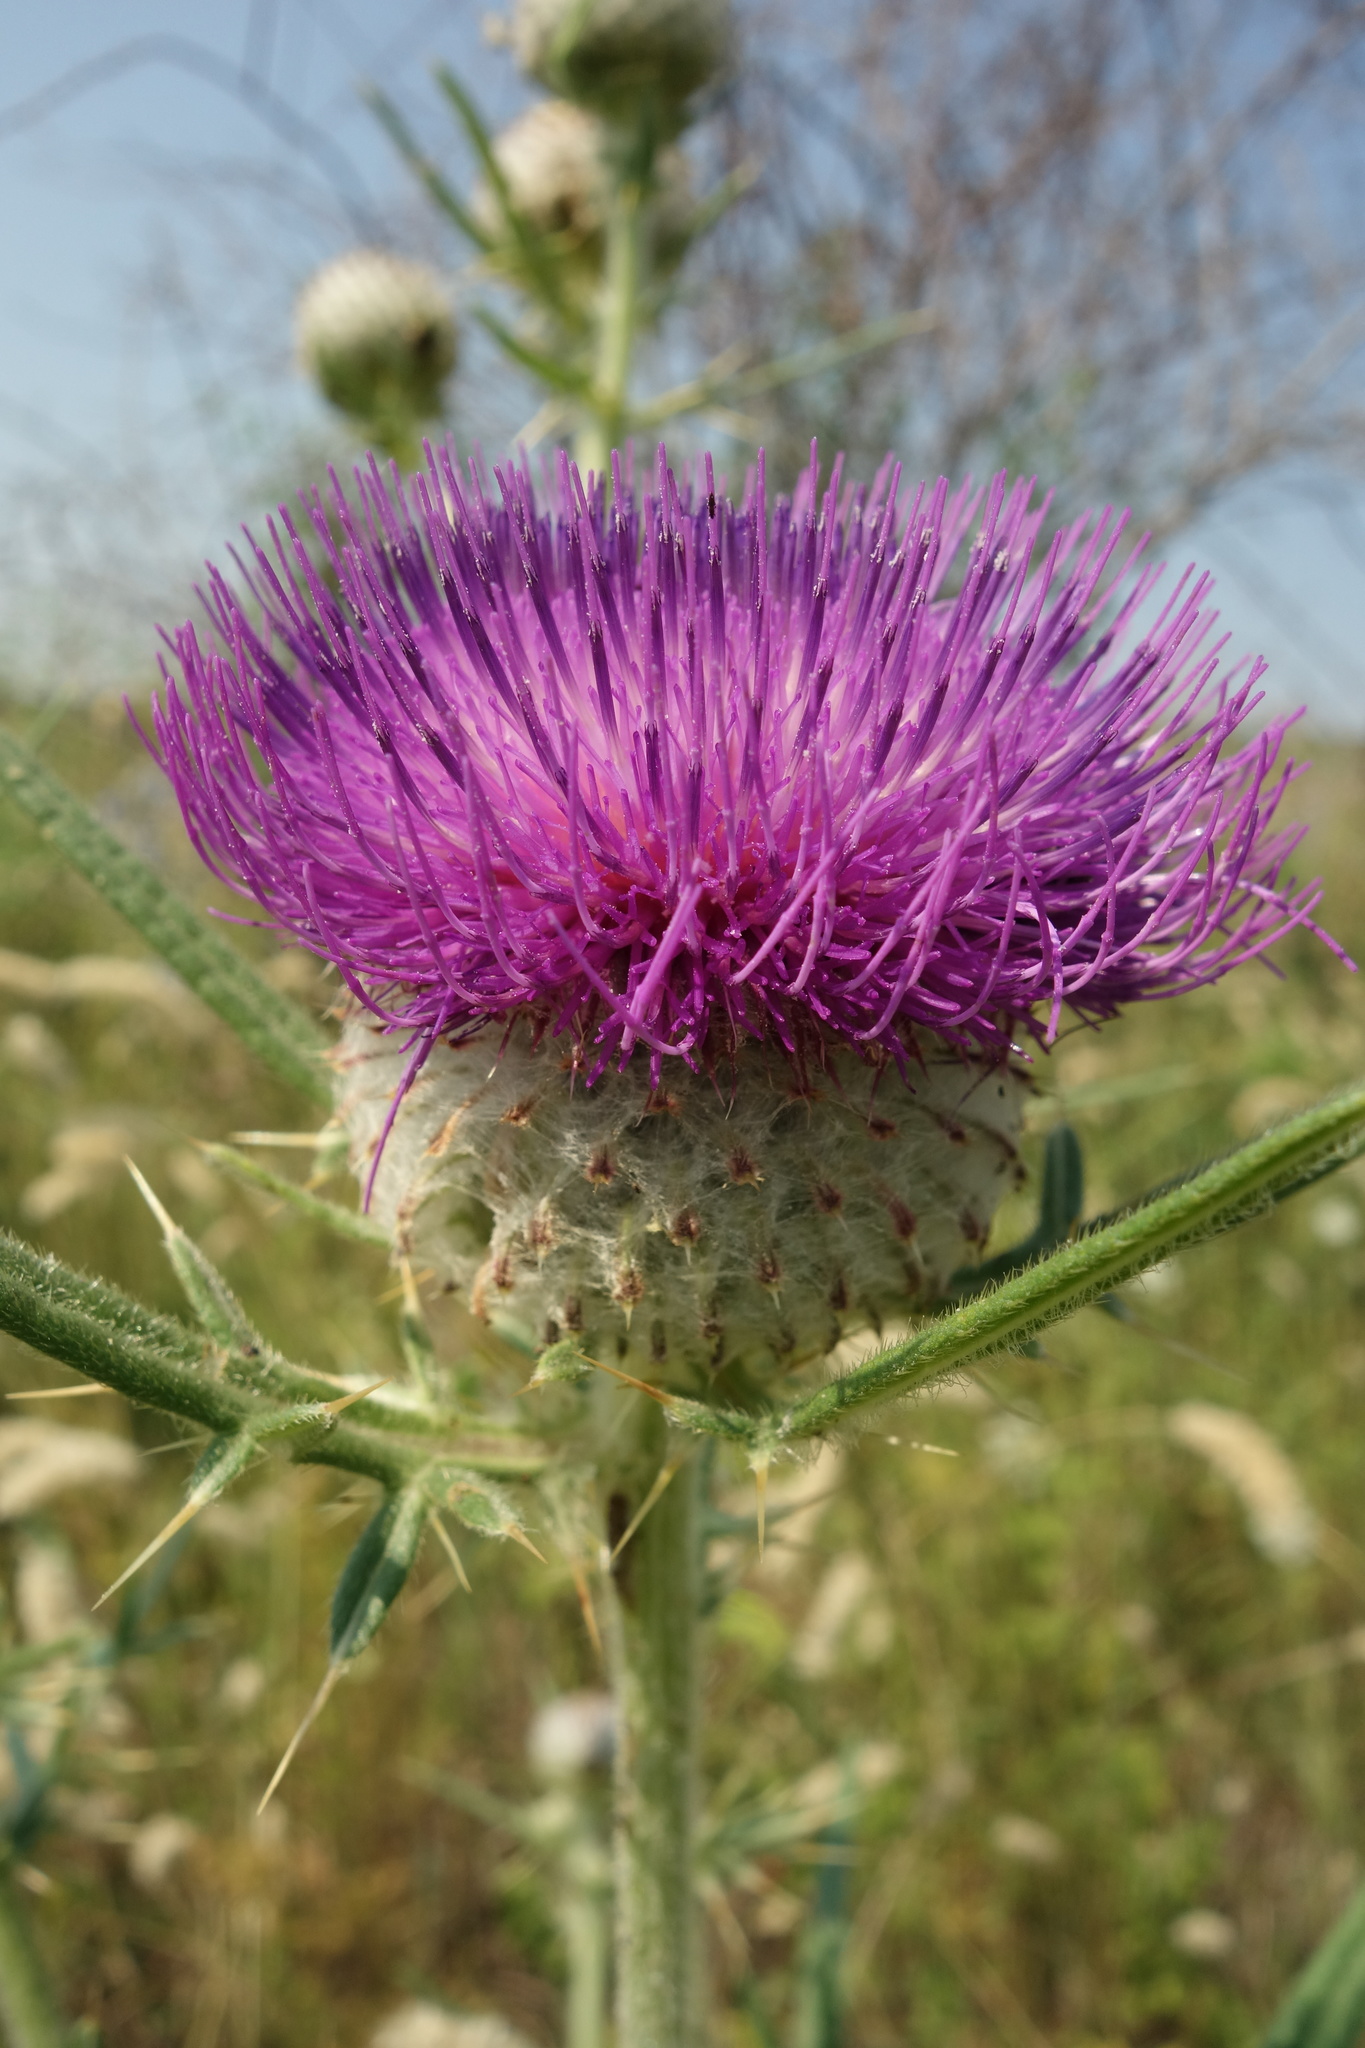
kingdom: Plantae
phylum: Tracheophyta
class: Magnoliopsida
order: Asterales
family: Asteraceae
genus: Lophiolepis
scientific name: Lophiolepis decussata
